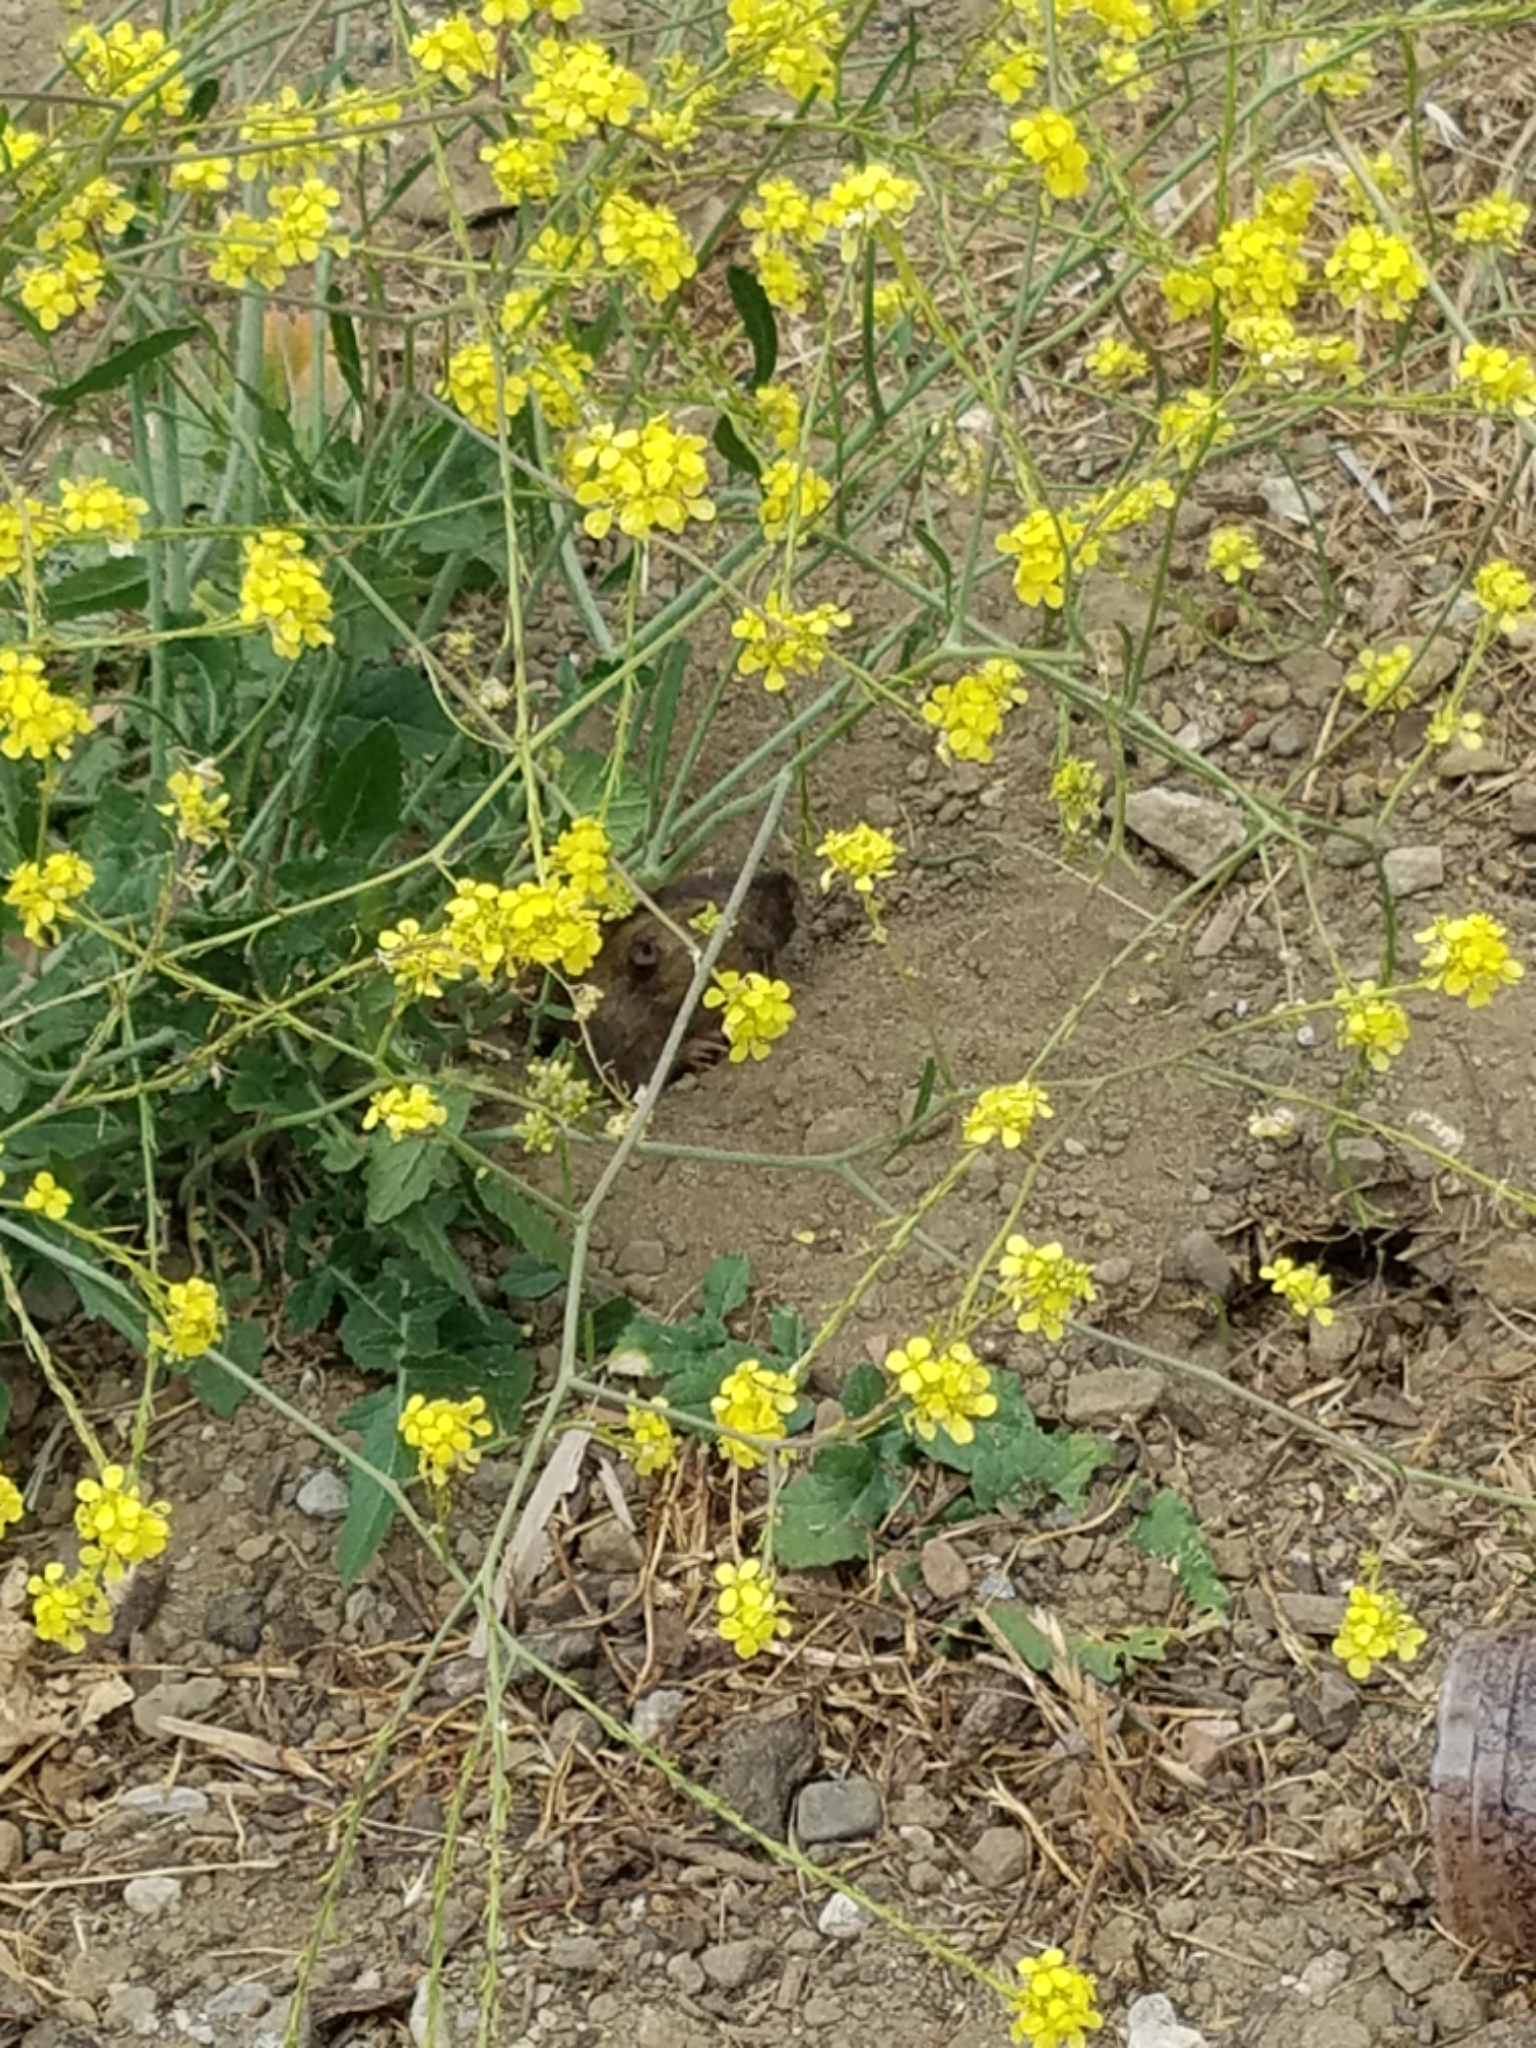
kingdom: Animalia
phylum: Chordata
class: Mammalia
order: Rodentia
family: Geomyidae
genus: Thomomys
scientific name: Thomomys bottae
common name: Botta's pocket gopher
